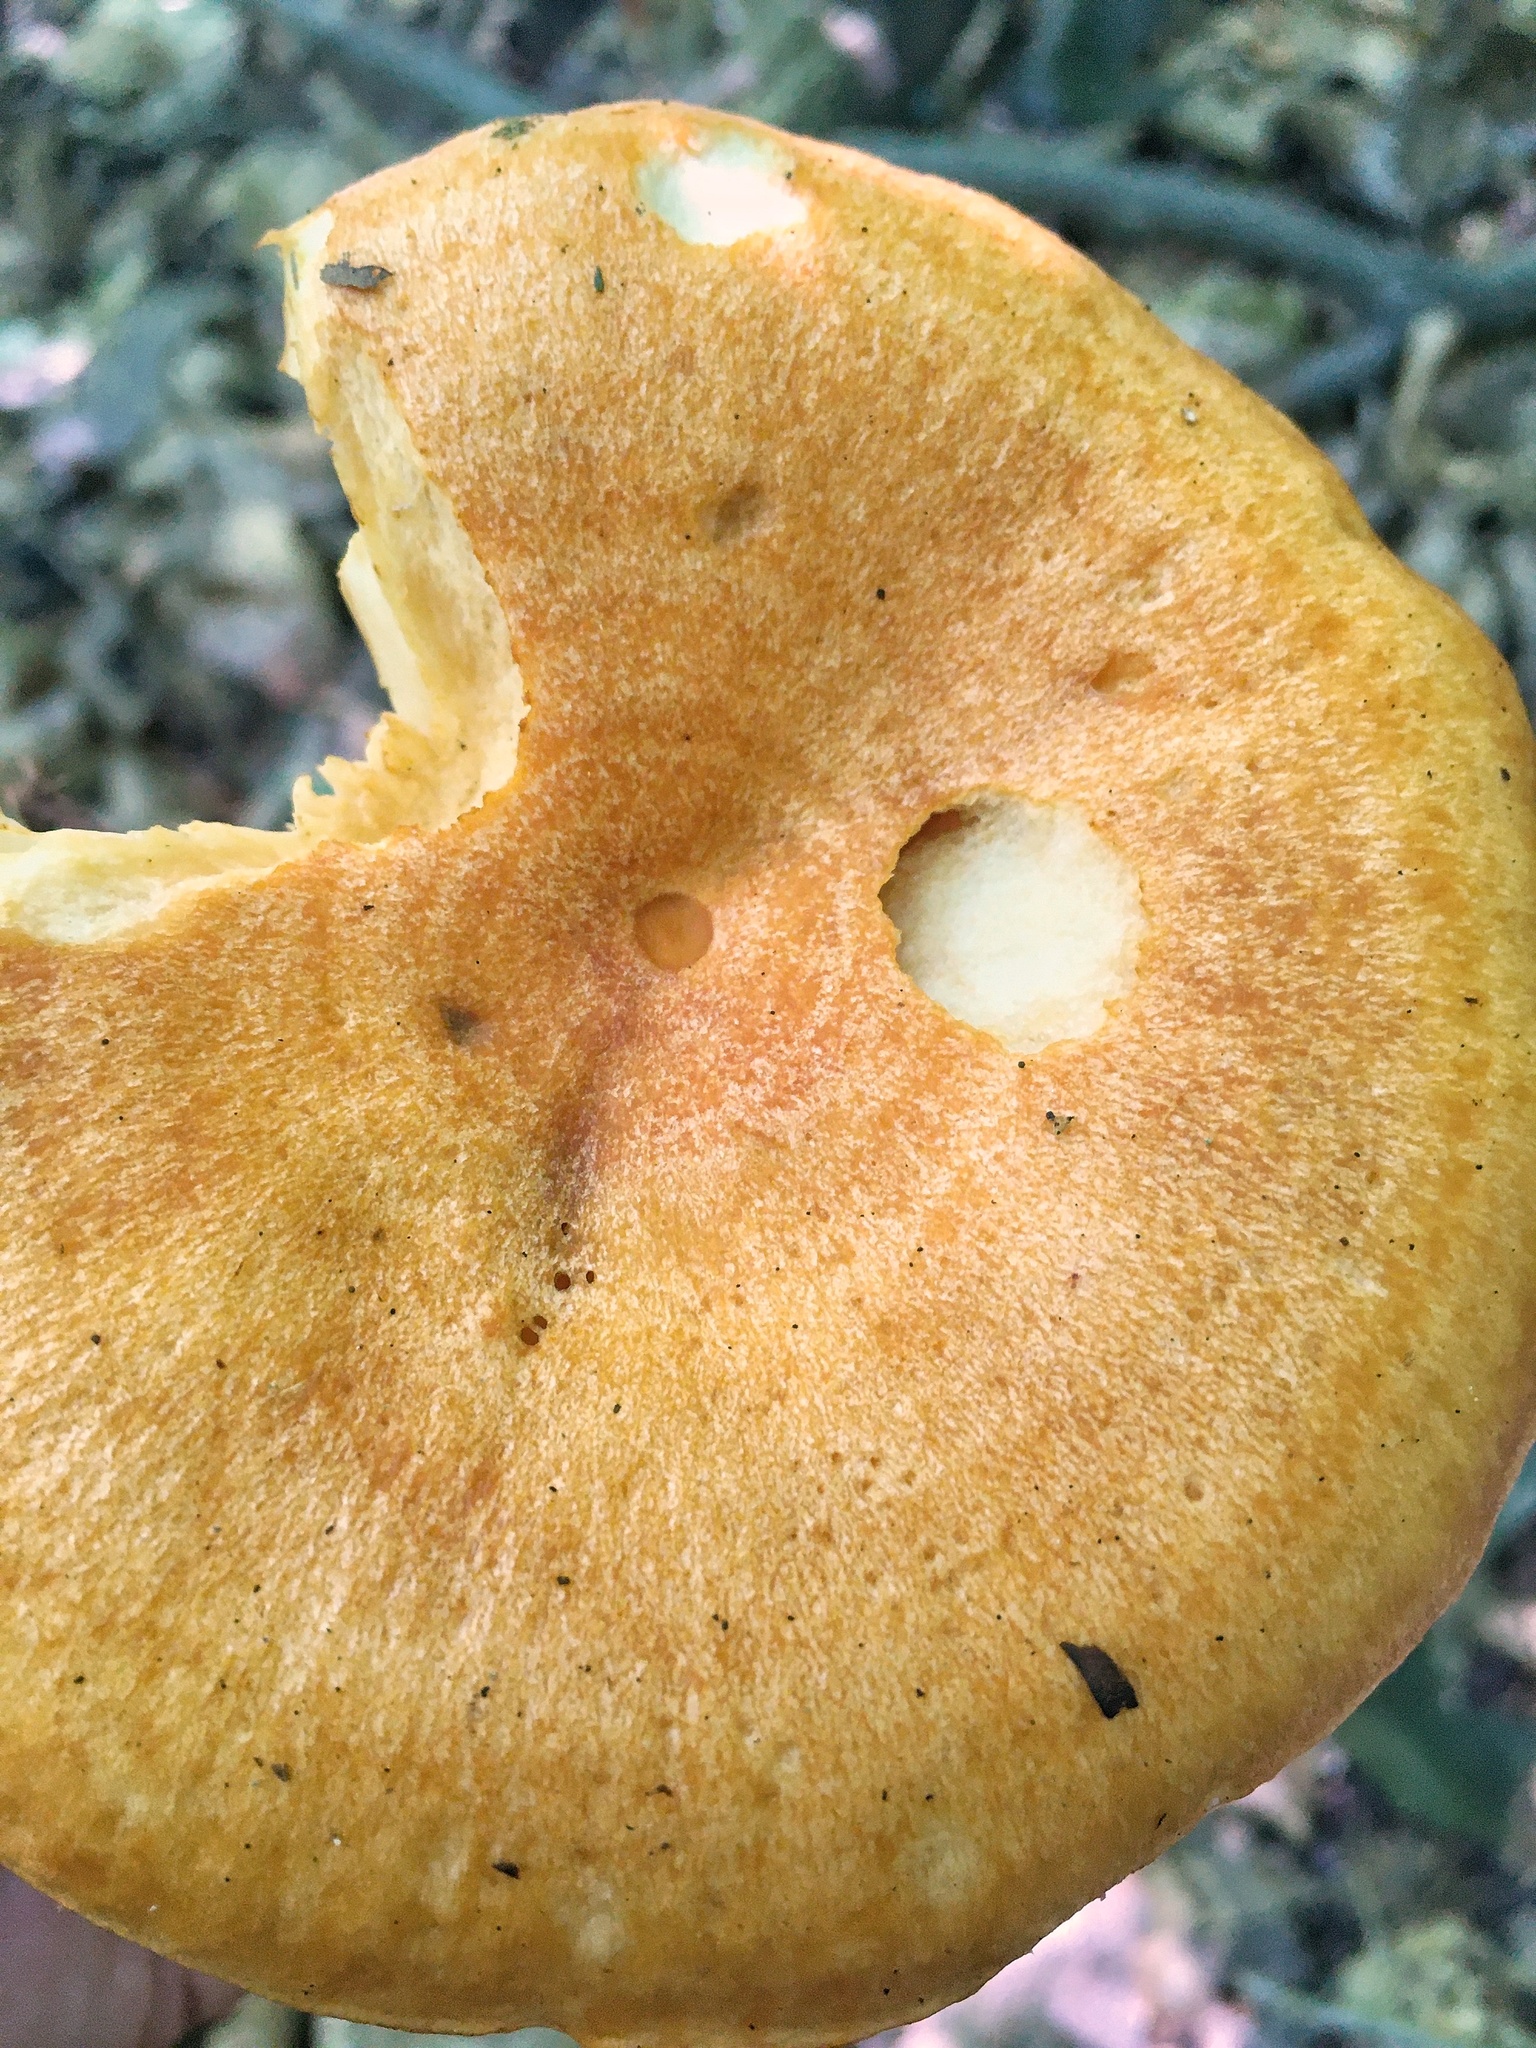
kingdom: Fungi
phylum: Basidiomycota
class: Agaricomycetes
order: Russulales
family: Russulaceae
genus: Lactarius
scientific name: Lactarius croceus
